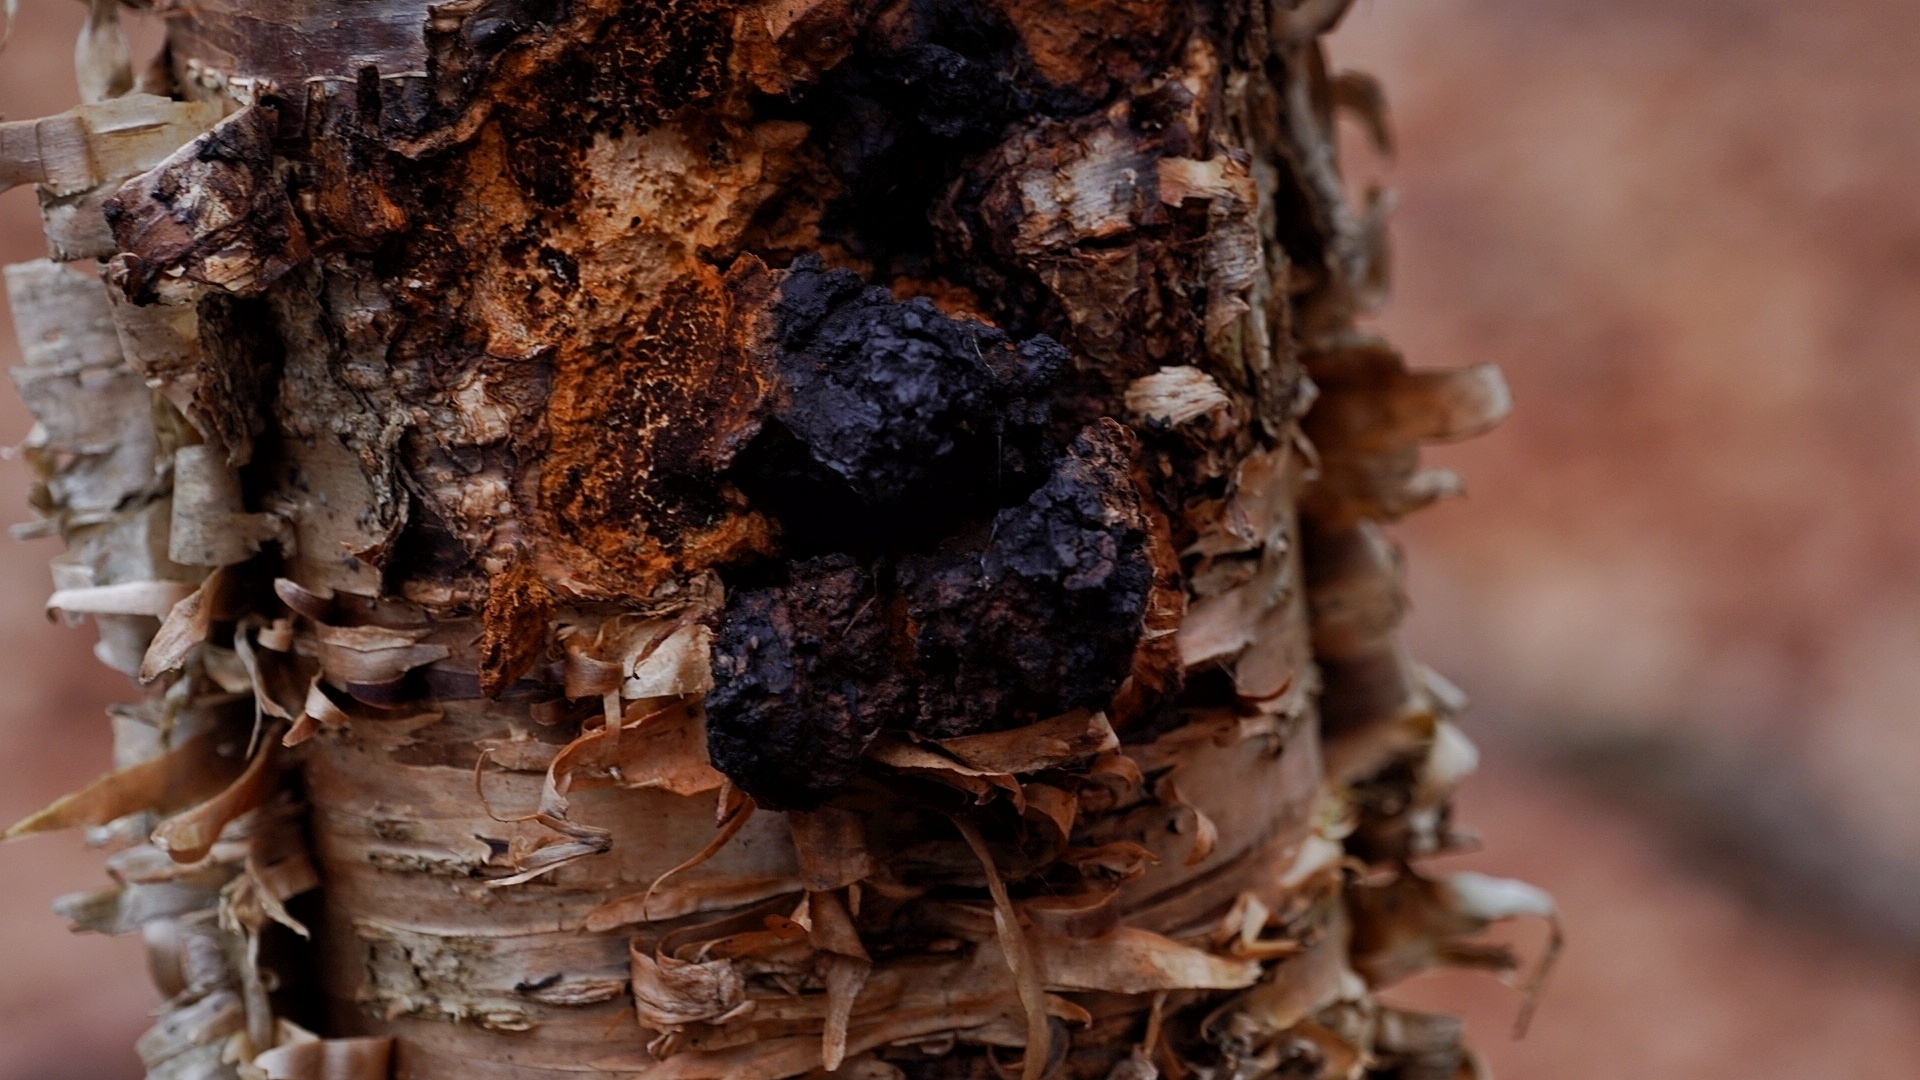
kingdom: Fungi
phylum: Basidiomycota
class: Agaricomycetes
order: Hymenochaetales
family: Hymenochaetaceae
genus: Inonotus
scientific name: Inonotus obliquus
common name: Chaga
